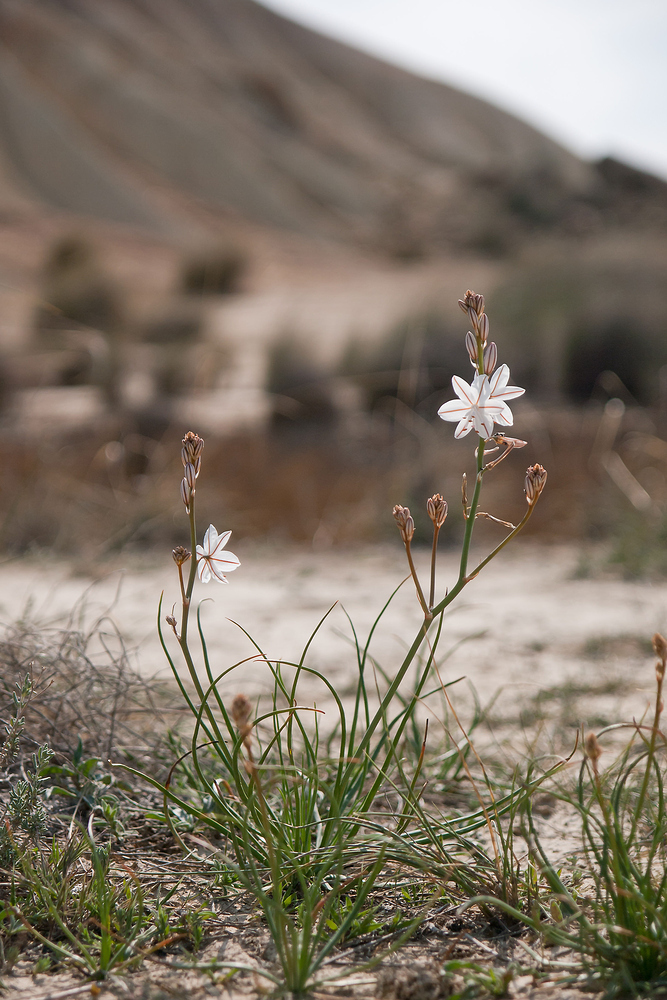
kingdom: Plantae
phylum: Tracheophyta
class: Liliopsida
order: Asparagales
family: Asphodelaceae
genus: Asphodelus
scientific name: Asphodelus fistulosus
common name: Onionweed
